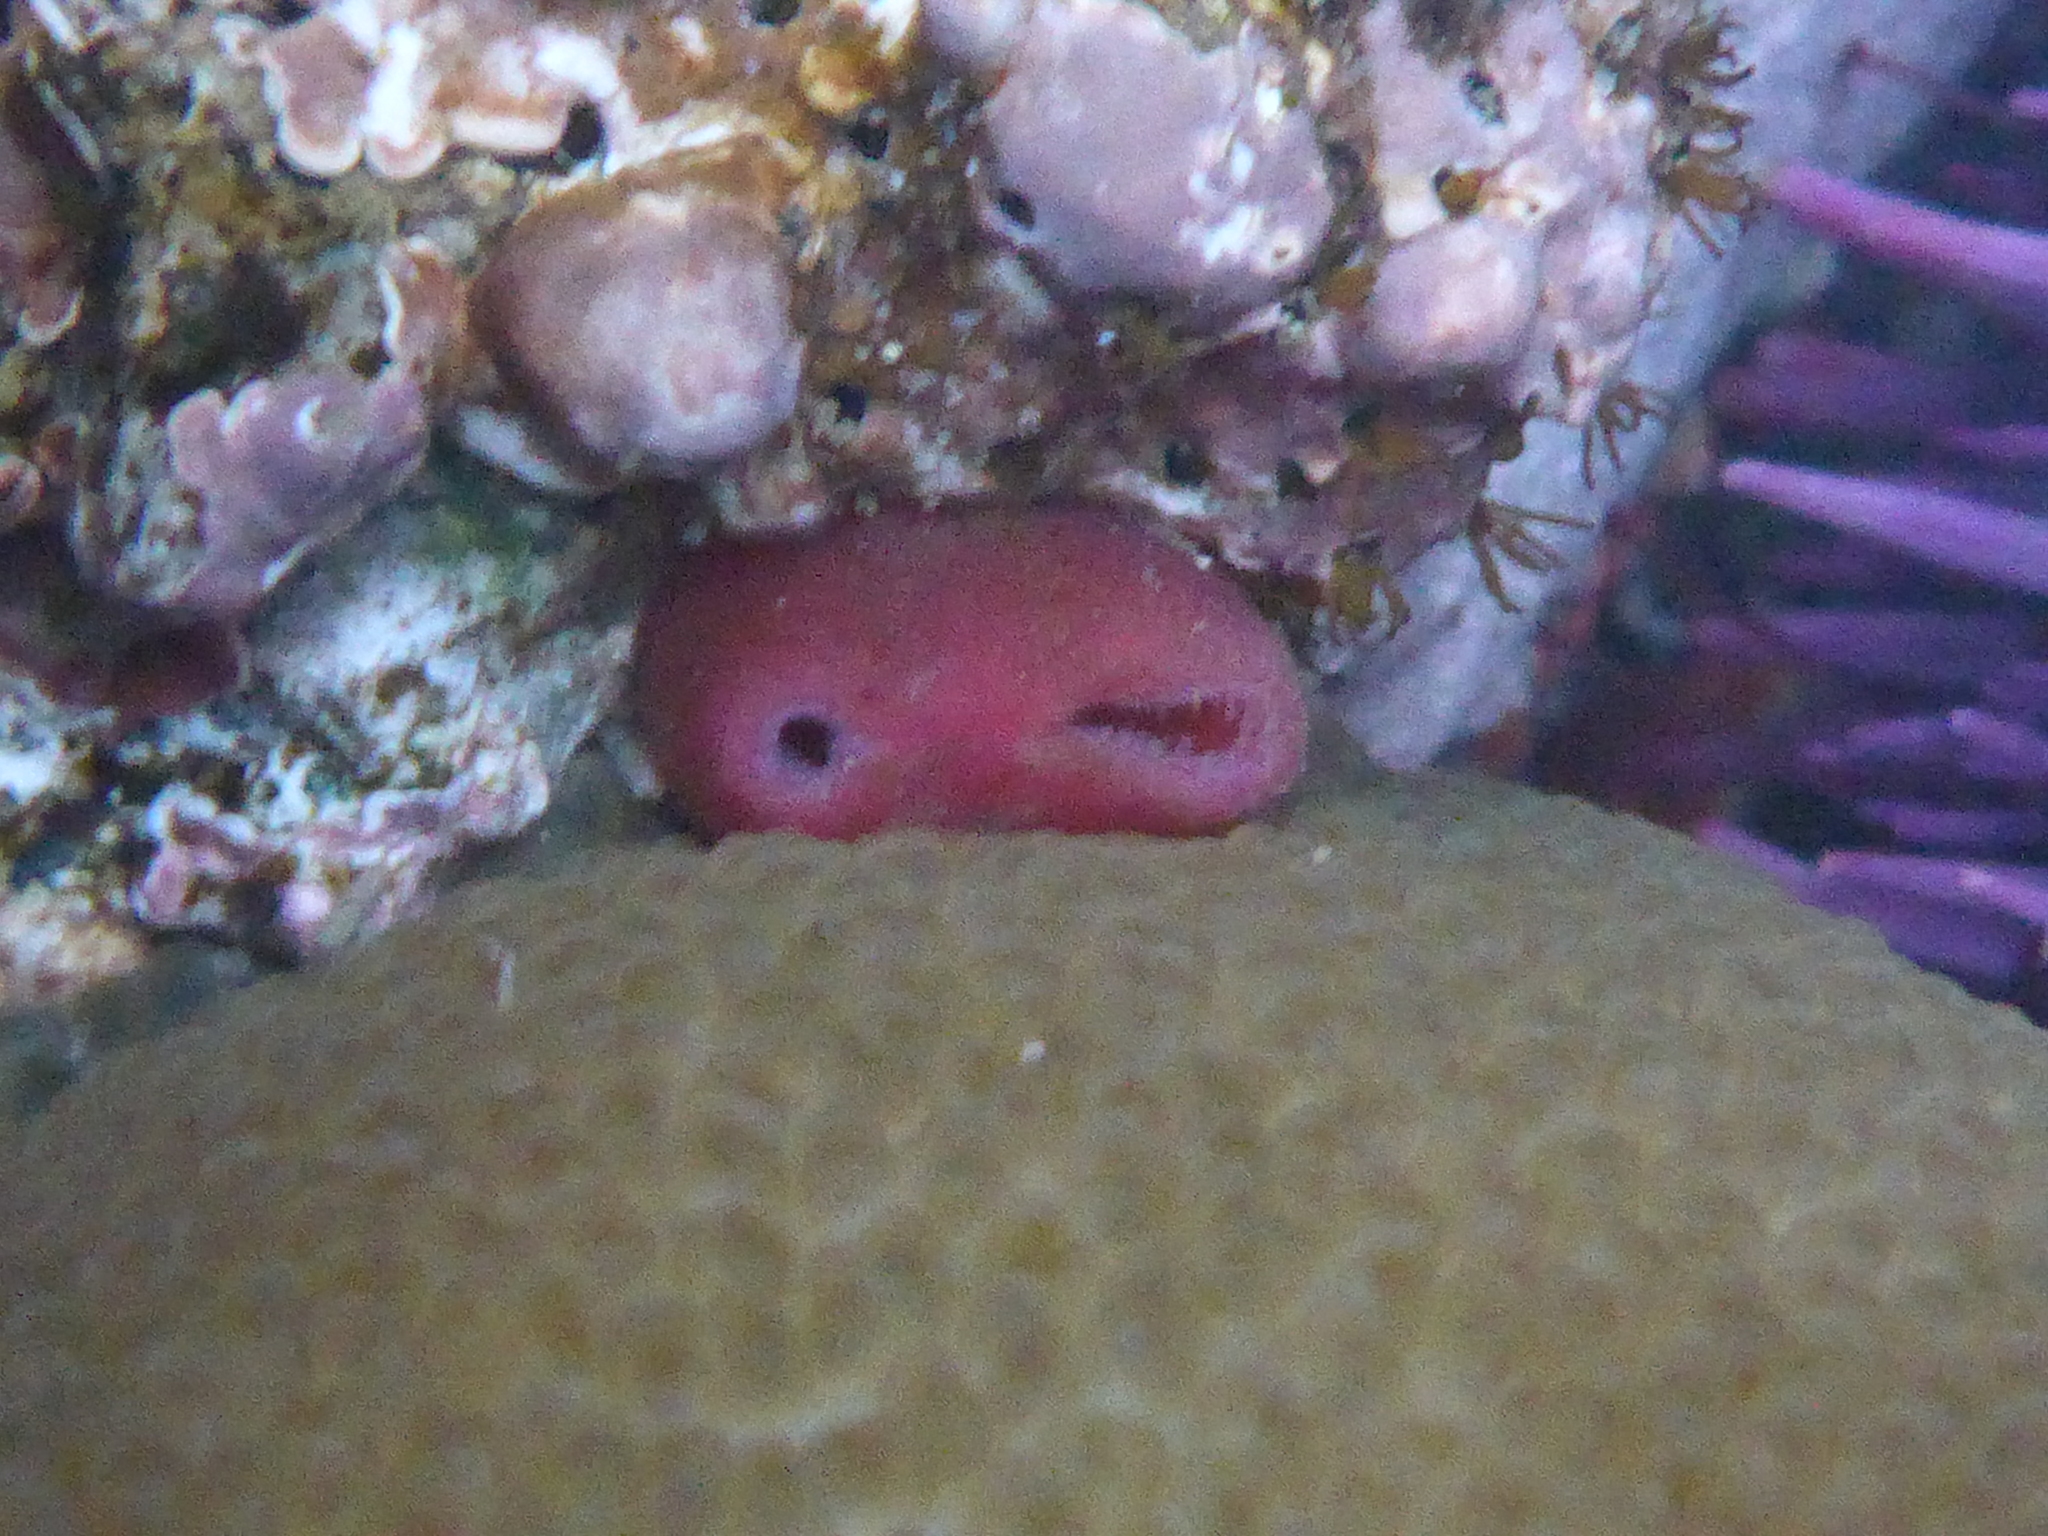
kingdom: Animalia
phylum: Mollusca
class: Bivalvia
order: Adapedonta
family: Hiatellidae
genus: Hiatella
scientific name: Hiatella arctica
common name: Arctic hiatella
